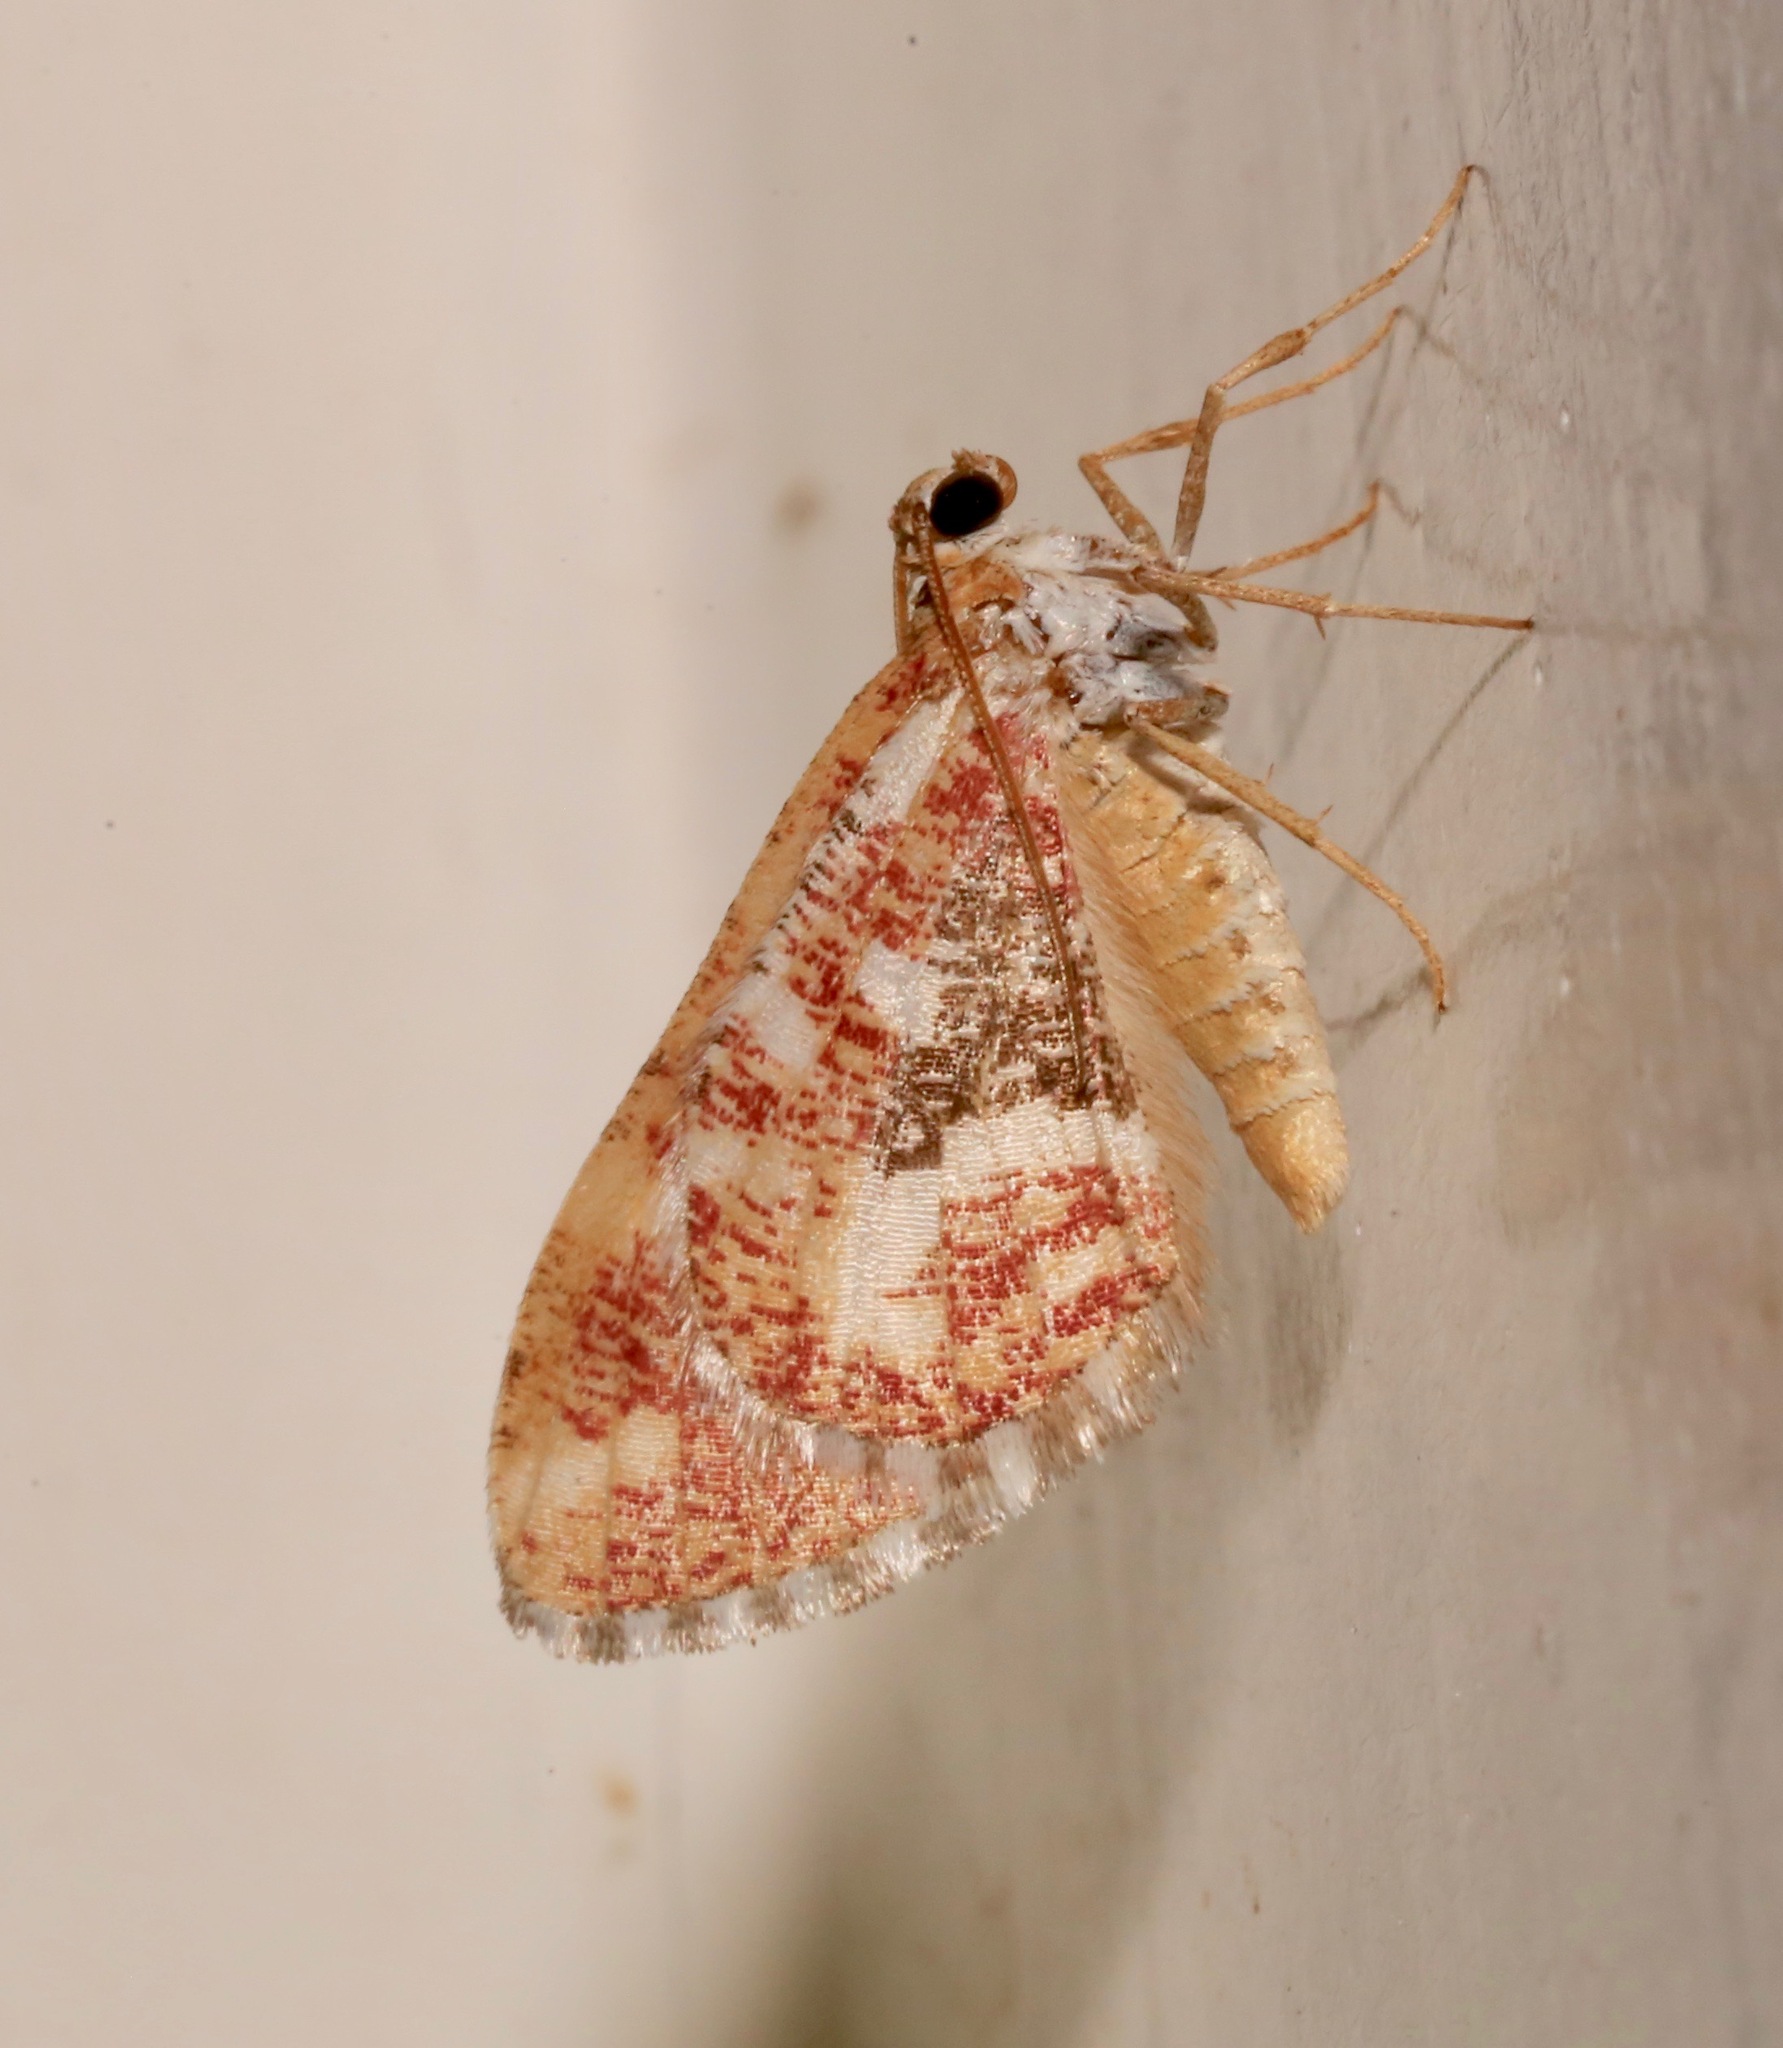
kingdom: Animalia
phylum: Arthropoda
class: Insecta
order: Lepidoptera
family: Geometridae
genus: Stamnodes
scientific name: Stamnodes formosata
